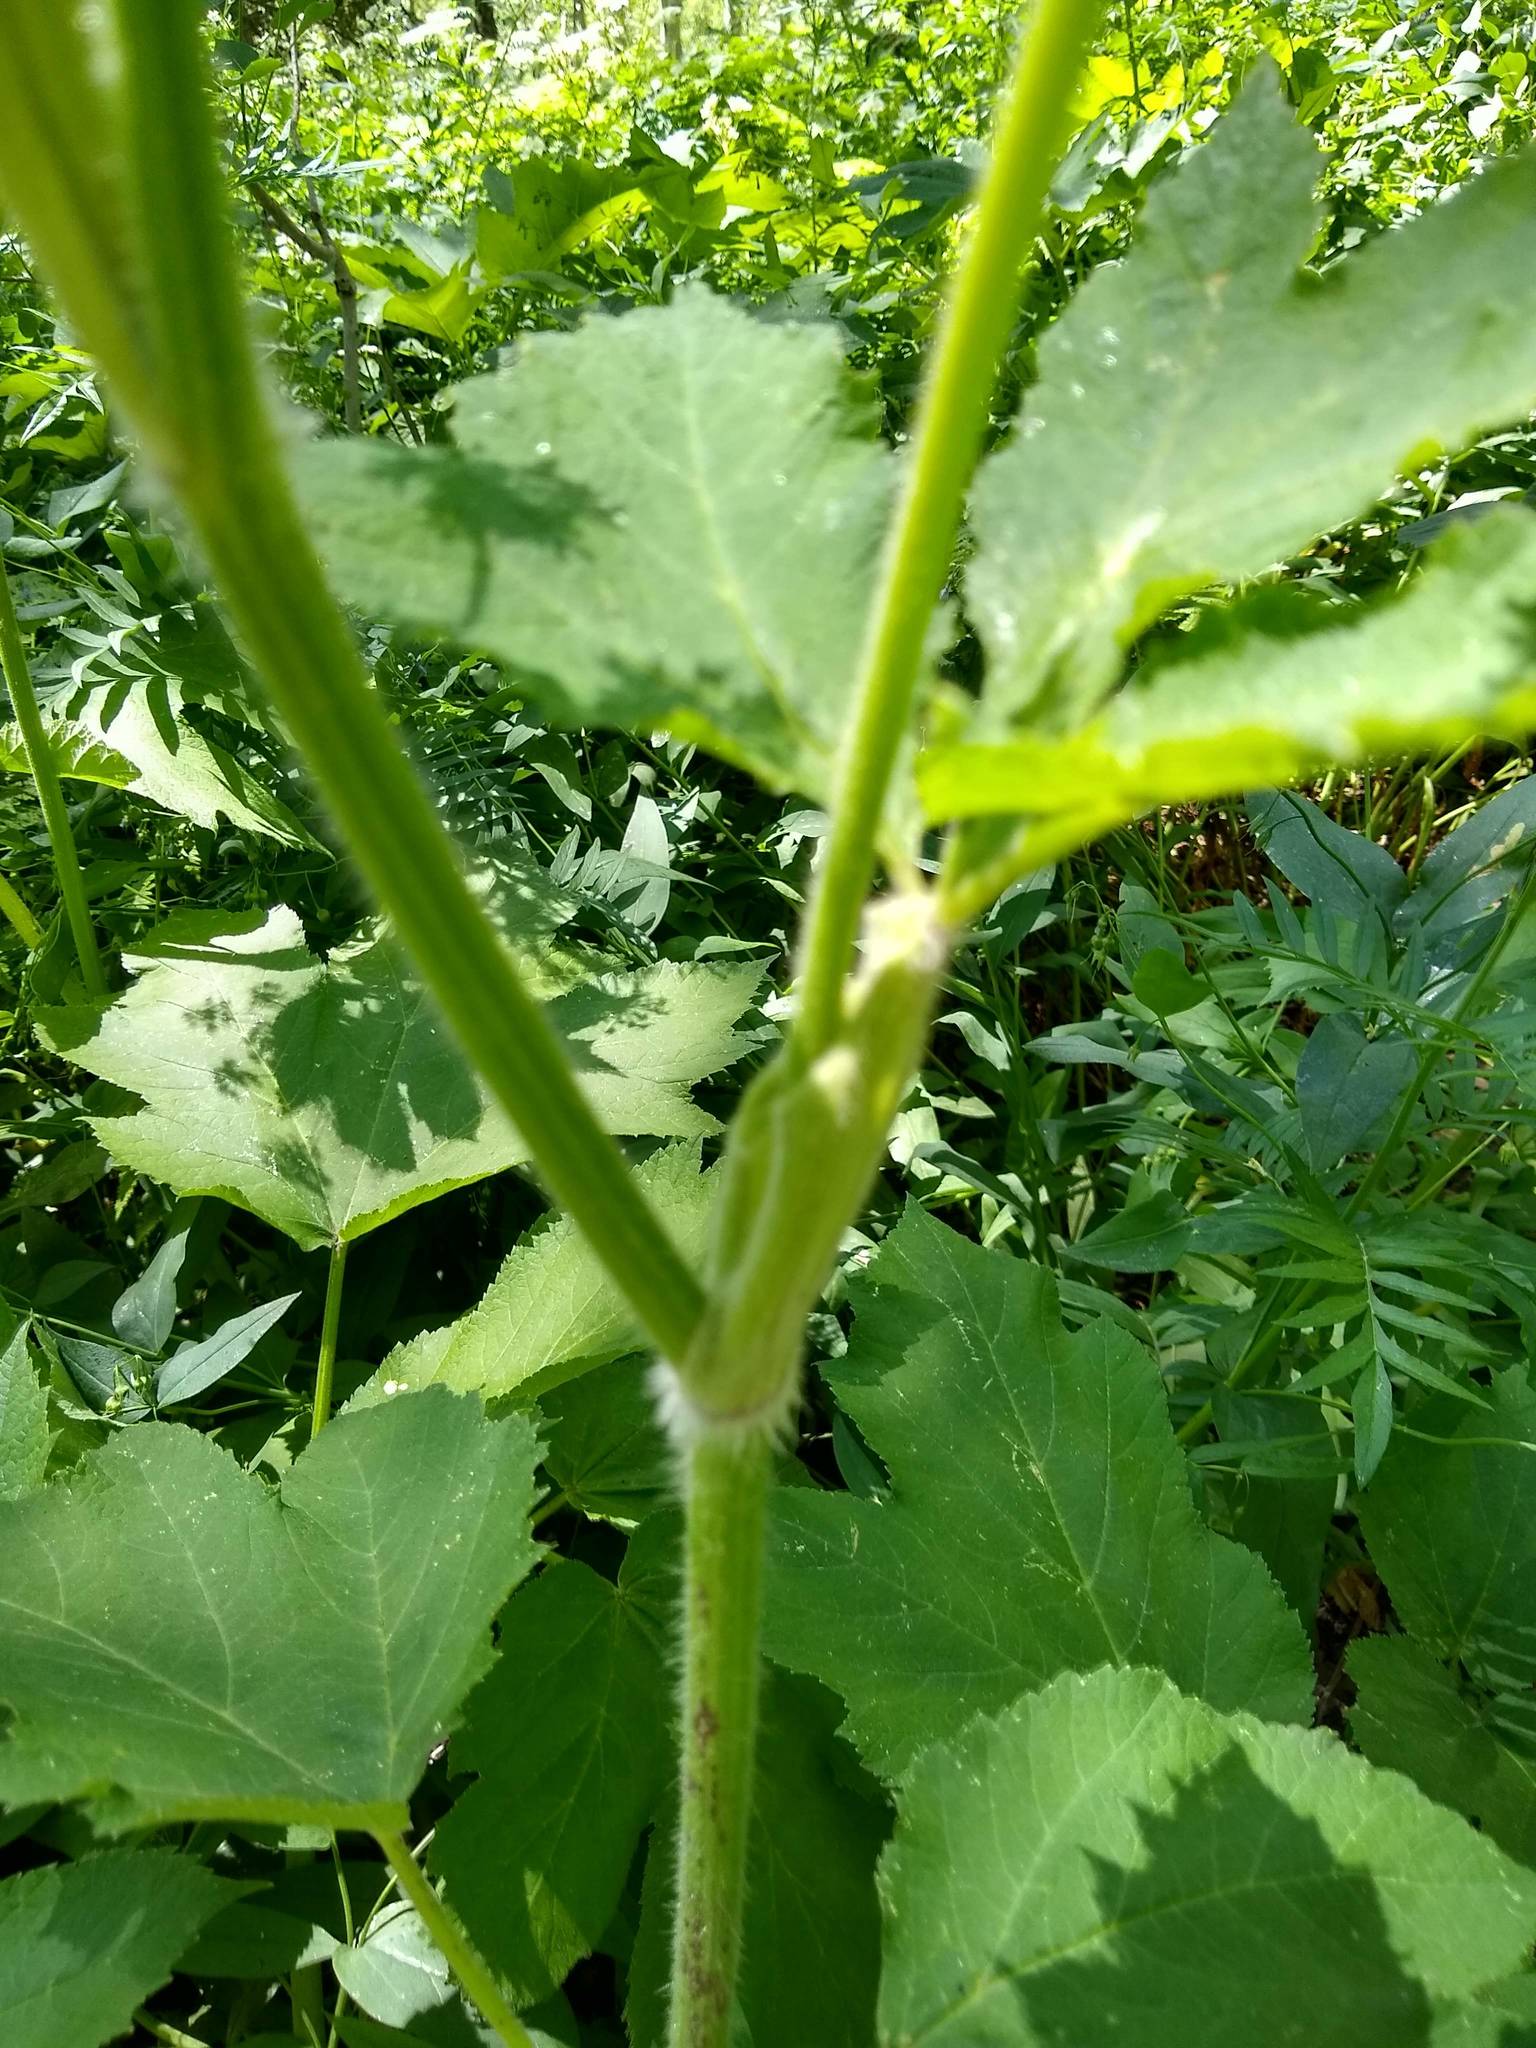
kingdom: Plantae
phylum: Tracheophyta
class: Magnoliopsida
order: Apiales
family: Apiaceae
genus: Heracleum
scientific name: Heracleum maximum
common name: American cow parsnip
